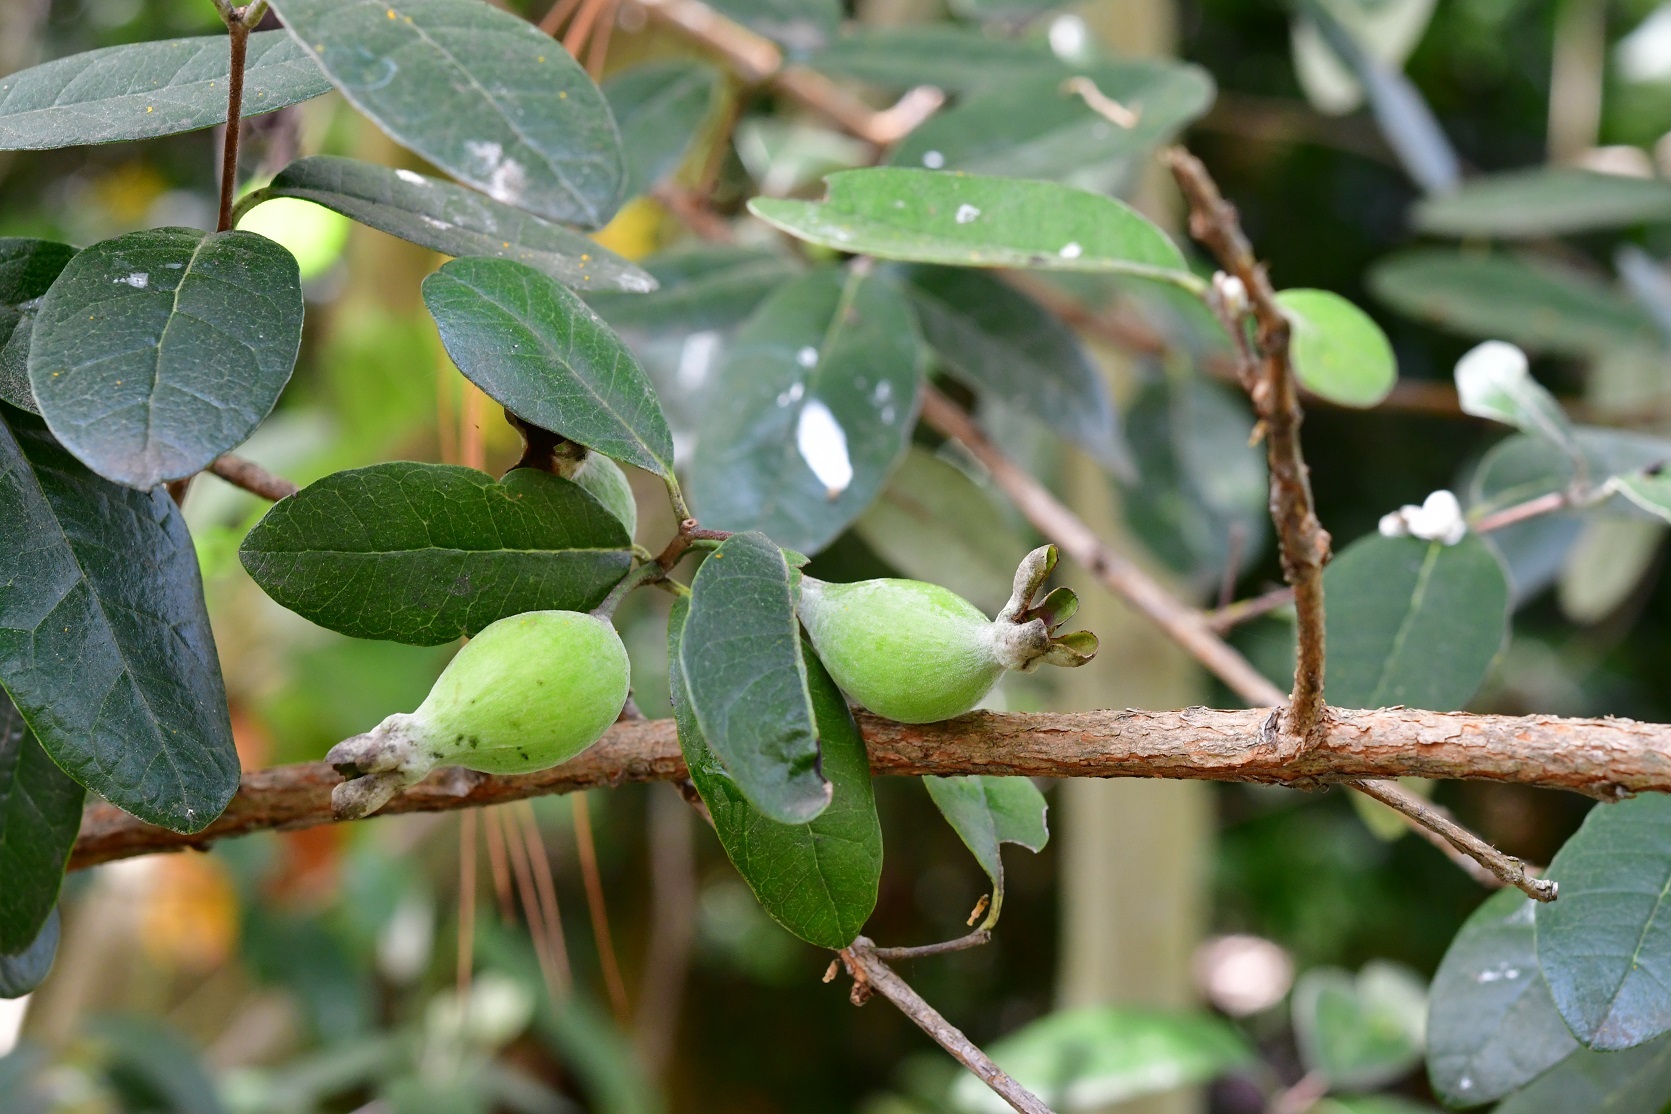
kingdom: Plantae
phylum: Tracheophyta
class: Magnoliopsida
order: Myrtales
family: Myrtaceae
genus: Feijoa
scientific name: Feijoa sellowiana
